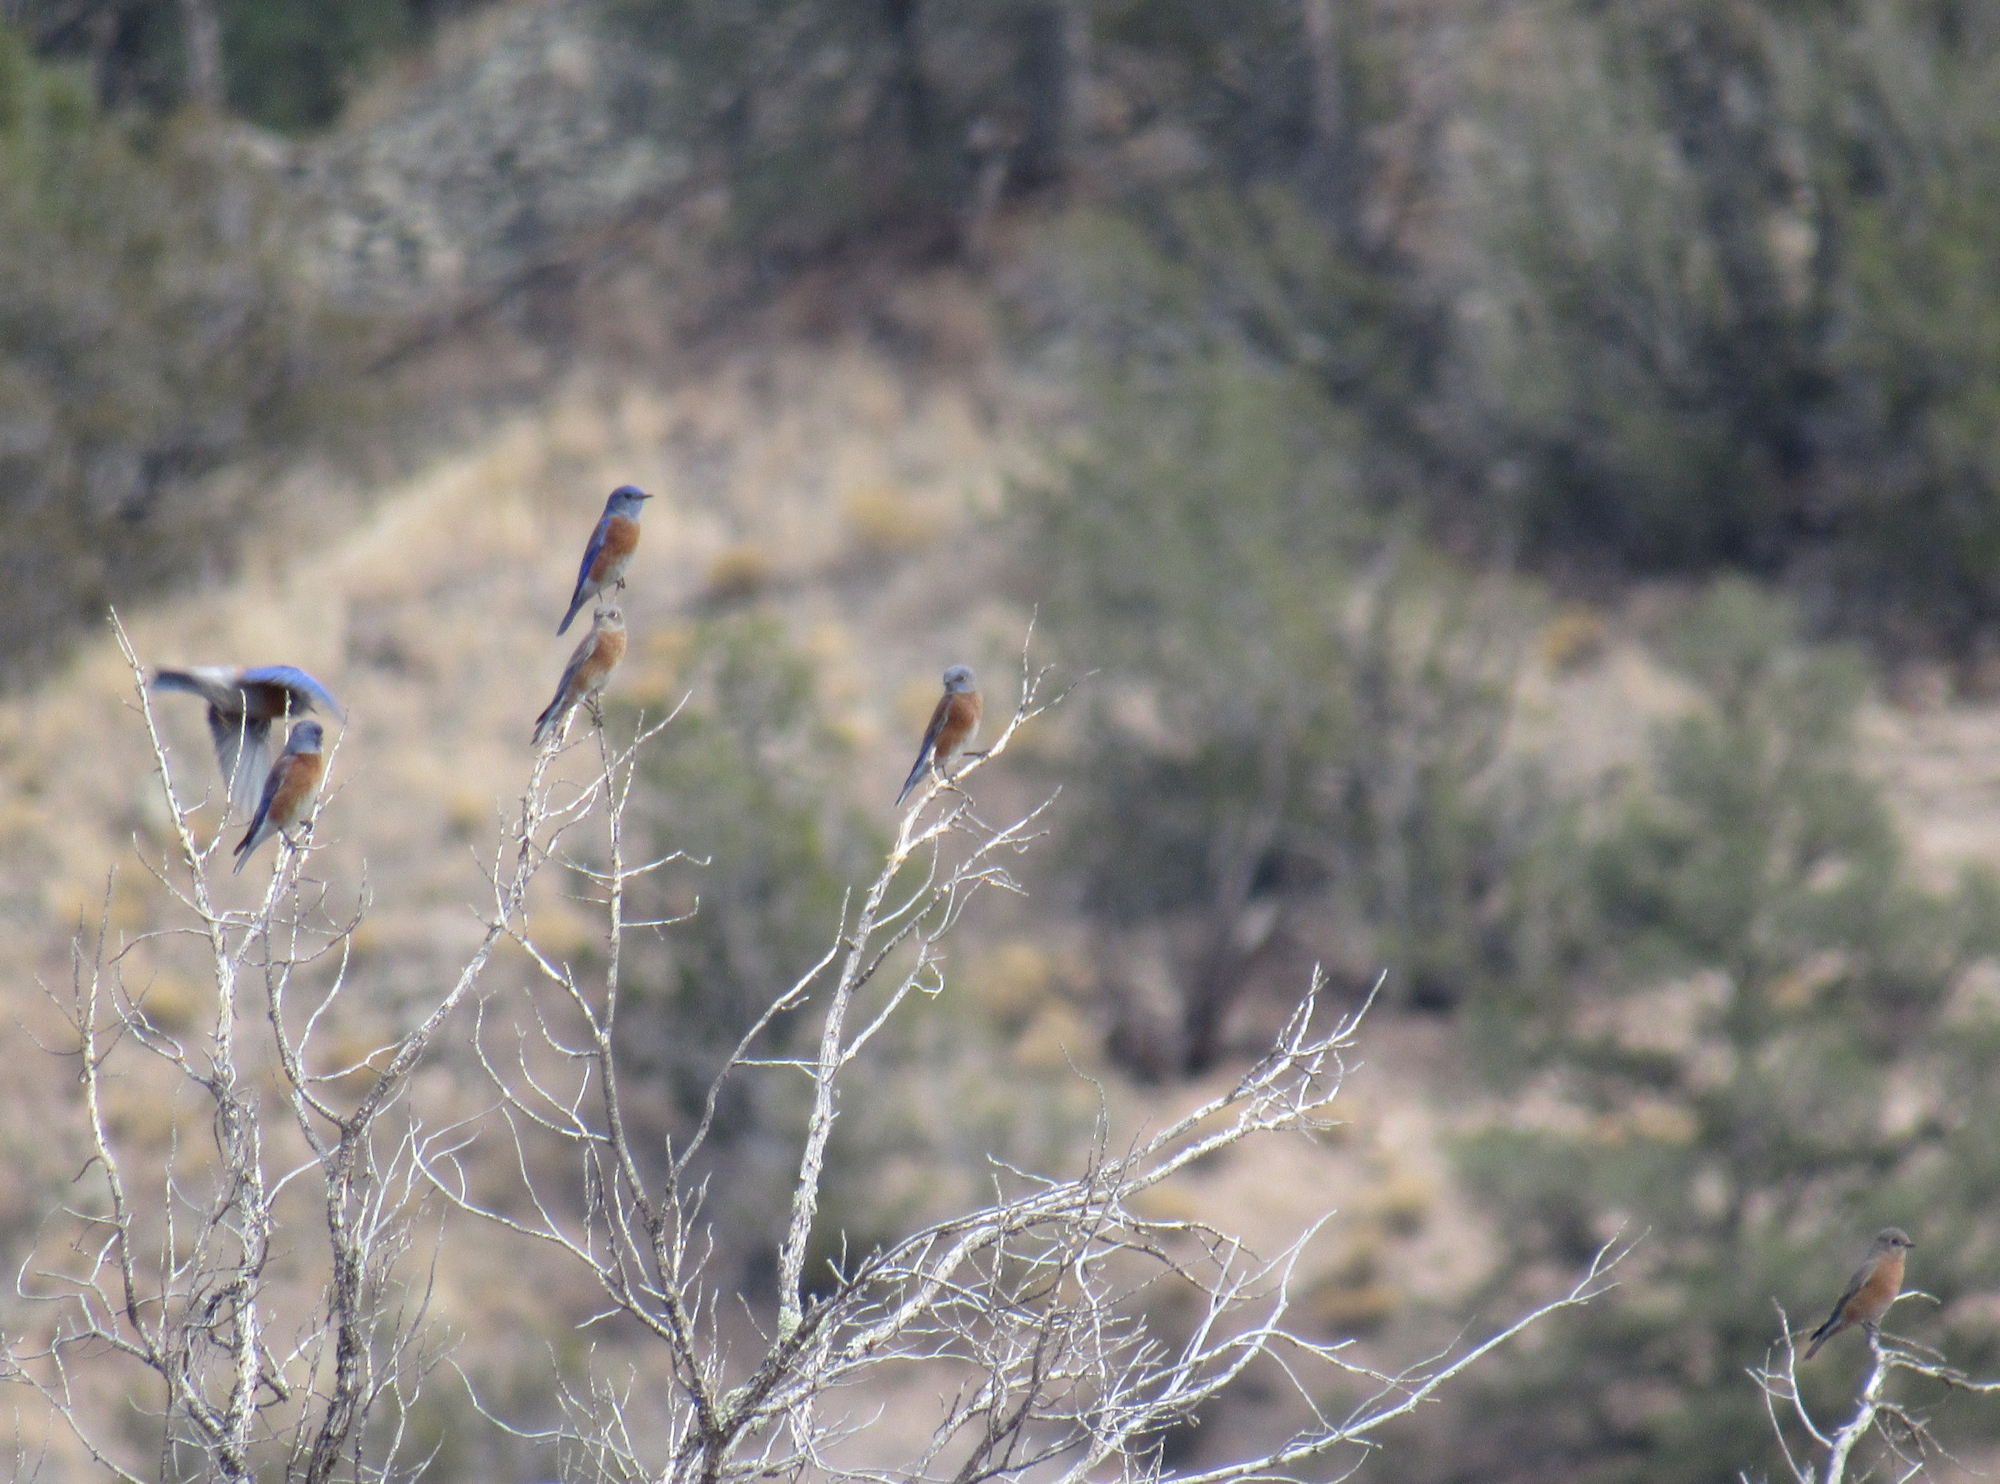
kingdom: Animalia
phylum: Chordata
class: Aves
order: Passeriformes
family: Turdidae
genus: Sialia
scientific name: Sialia mexicana
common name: Western bluebird
